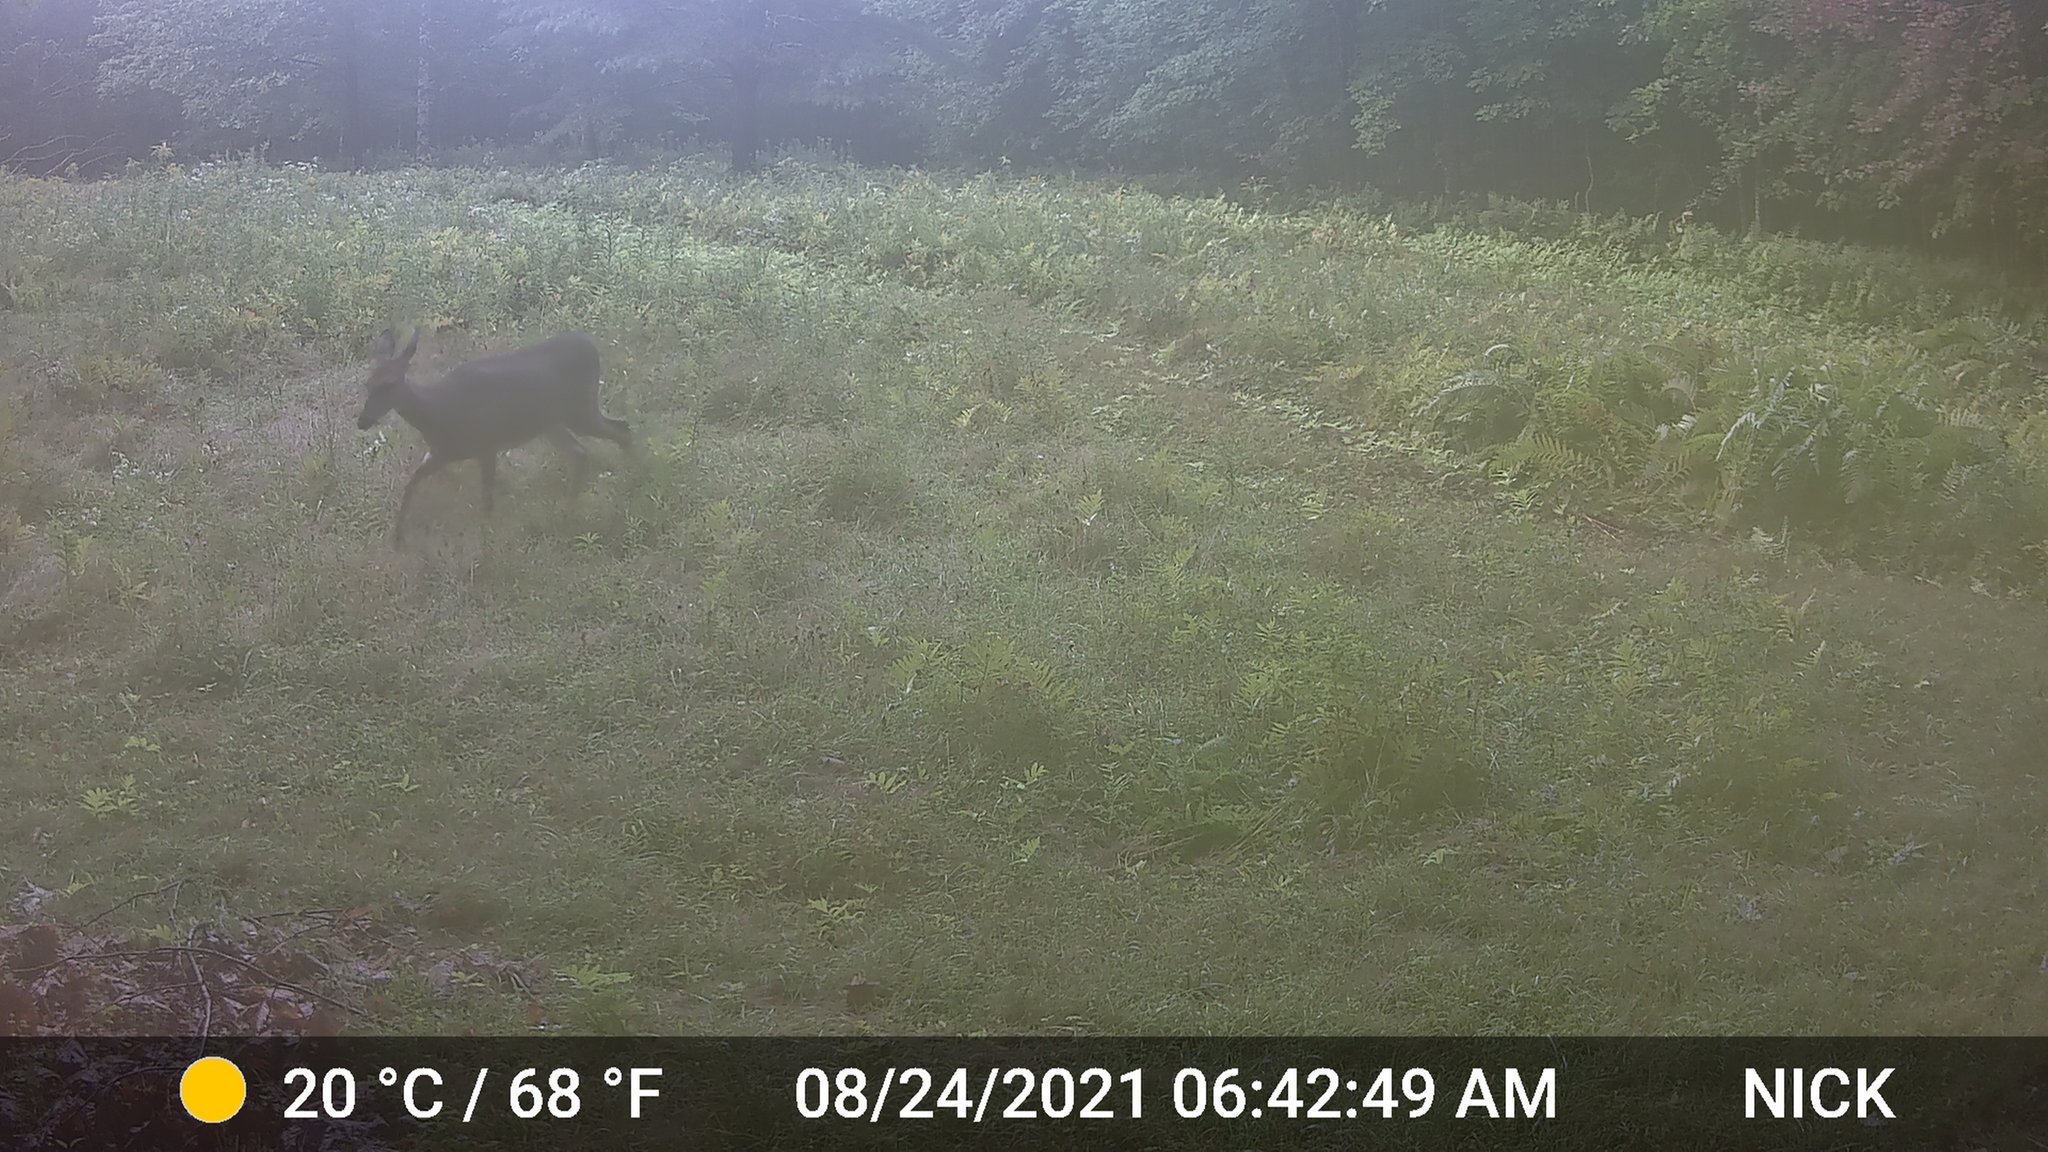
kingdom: Animalia
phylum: Chordata
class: Mammalia
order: Artiodactyla
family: Cervidae
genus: Odocoileus
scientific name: Odocoileus virginianus
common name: White-tailed deer
